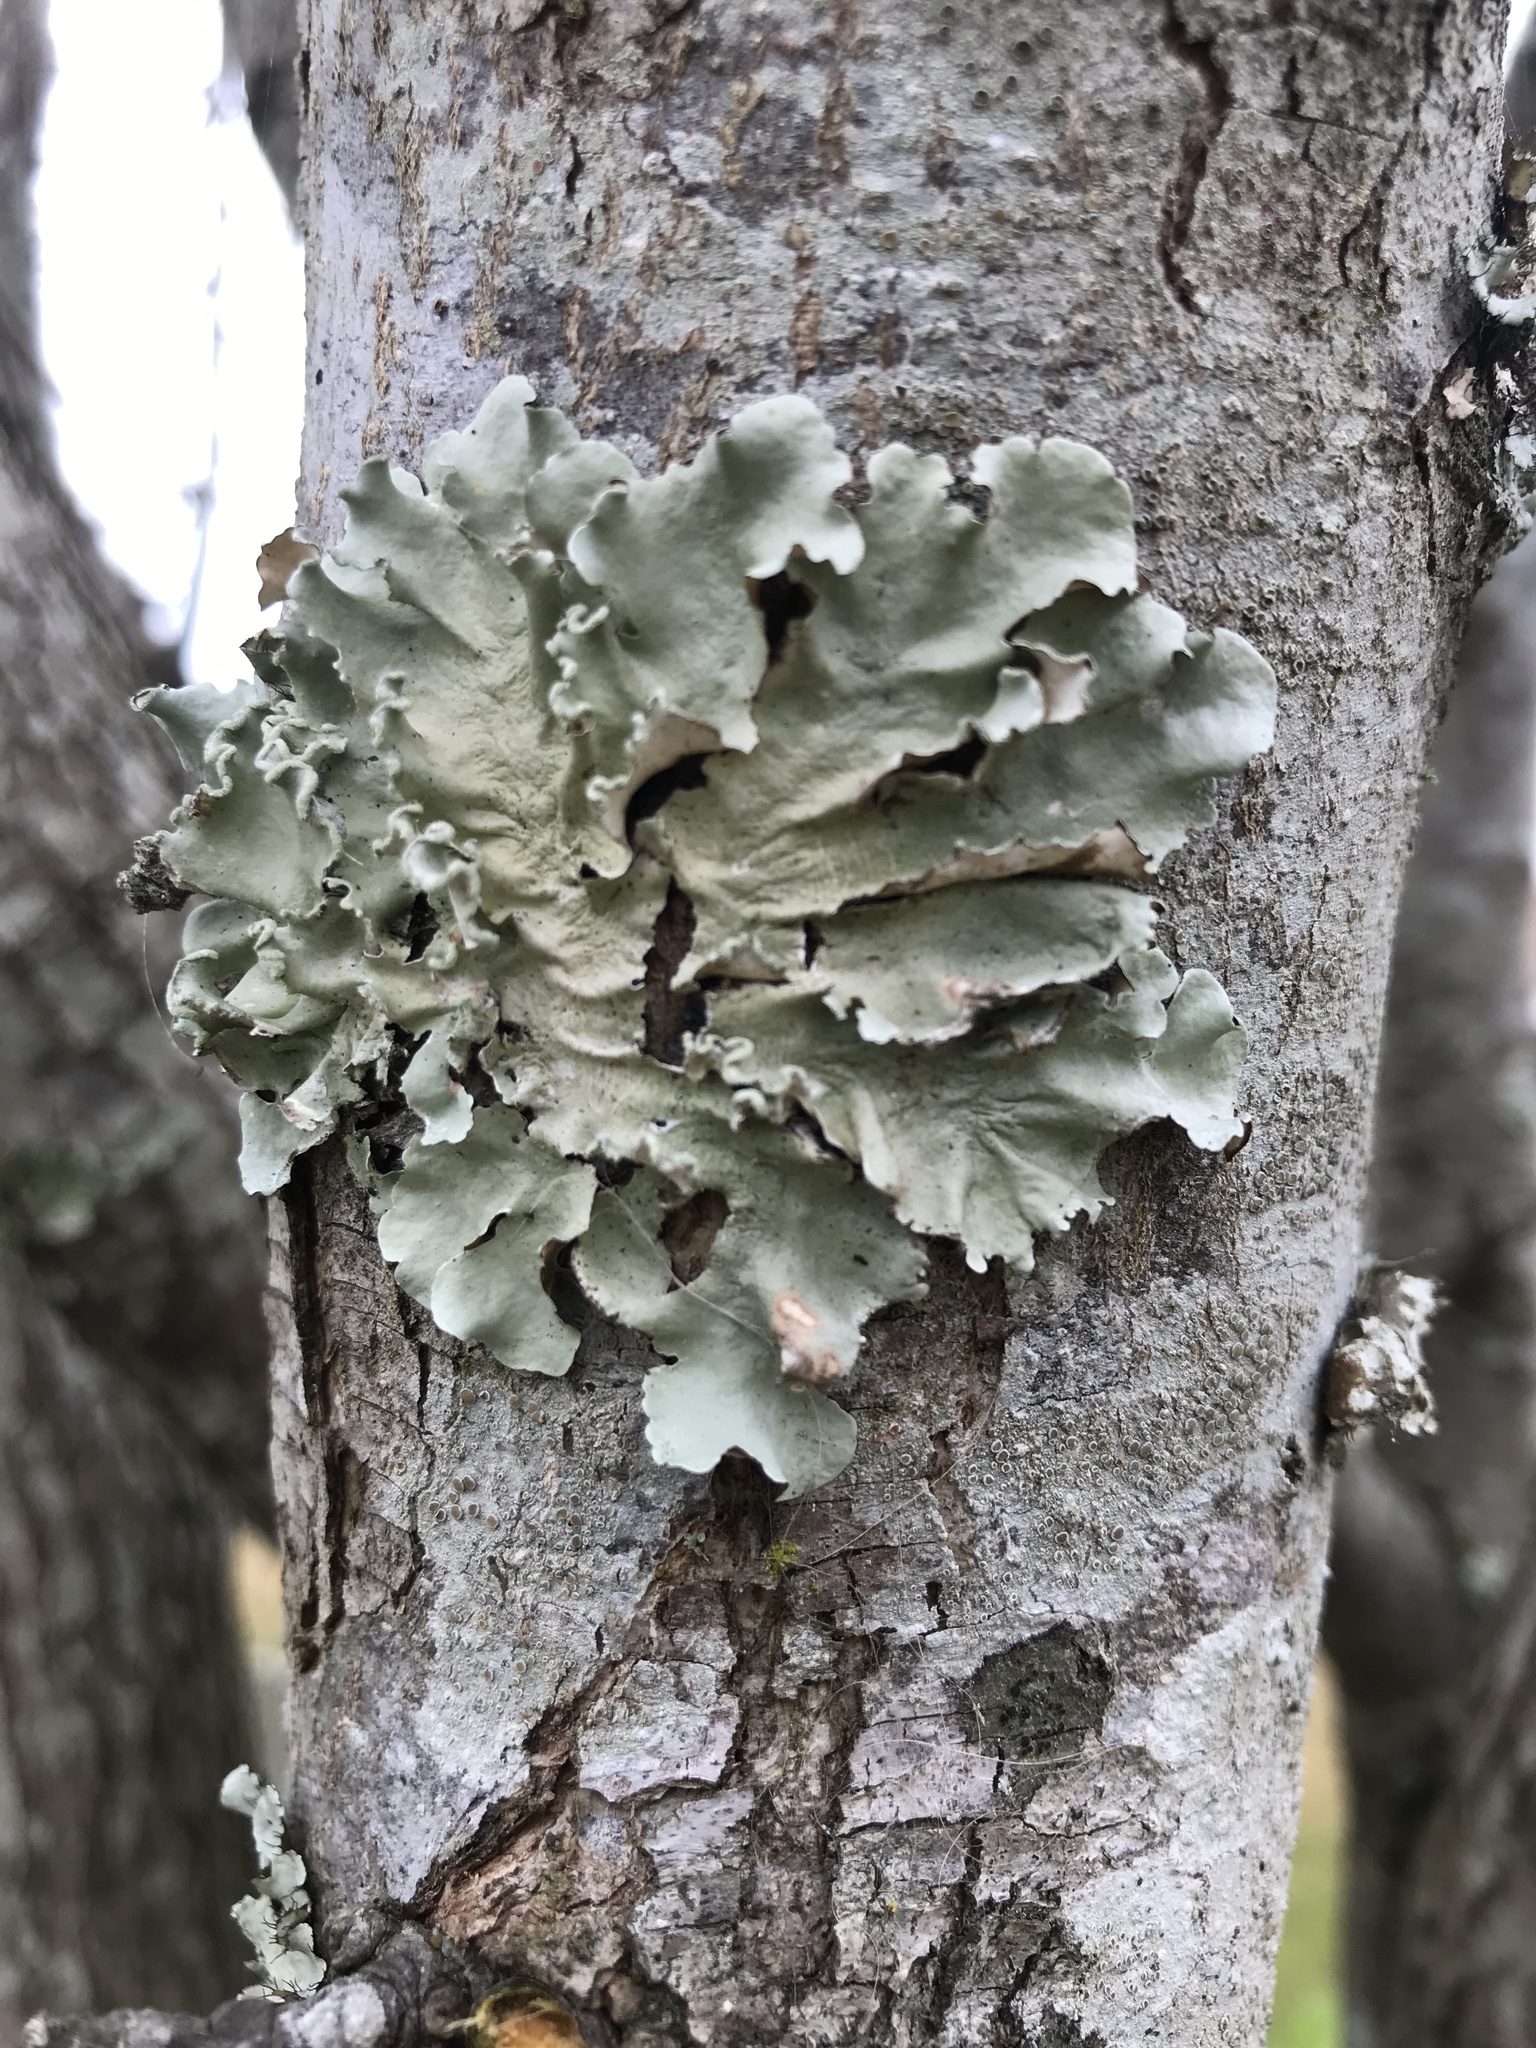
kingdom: Fungi
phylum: Ascomycota
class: Lecanoromycetes
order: Lecanorales
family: Parmeliaceae
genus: Parmotrema
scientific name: Parmotrema austrosinense
